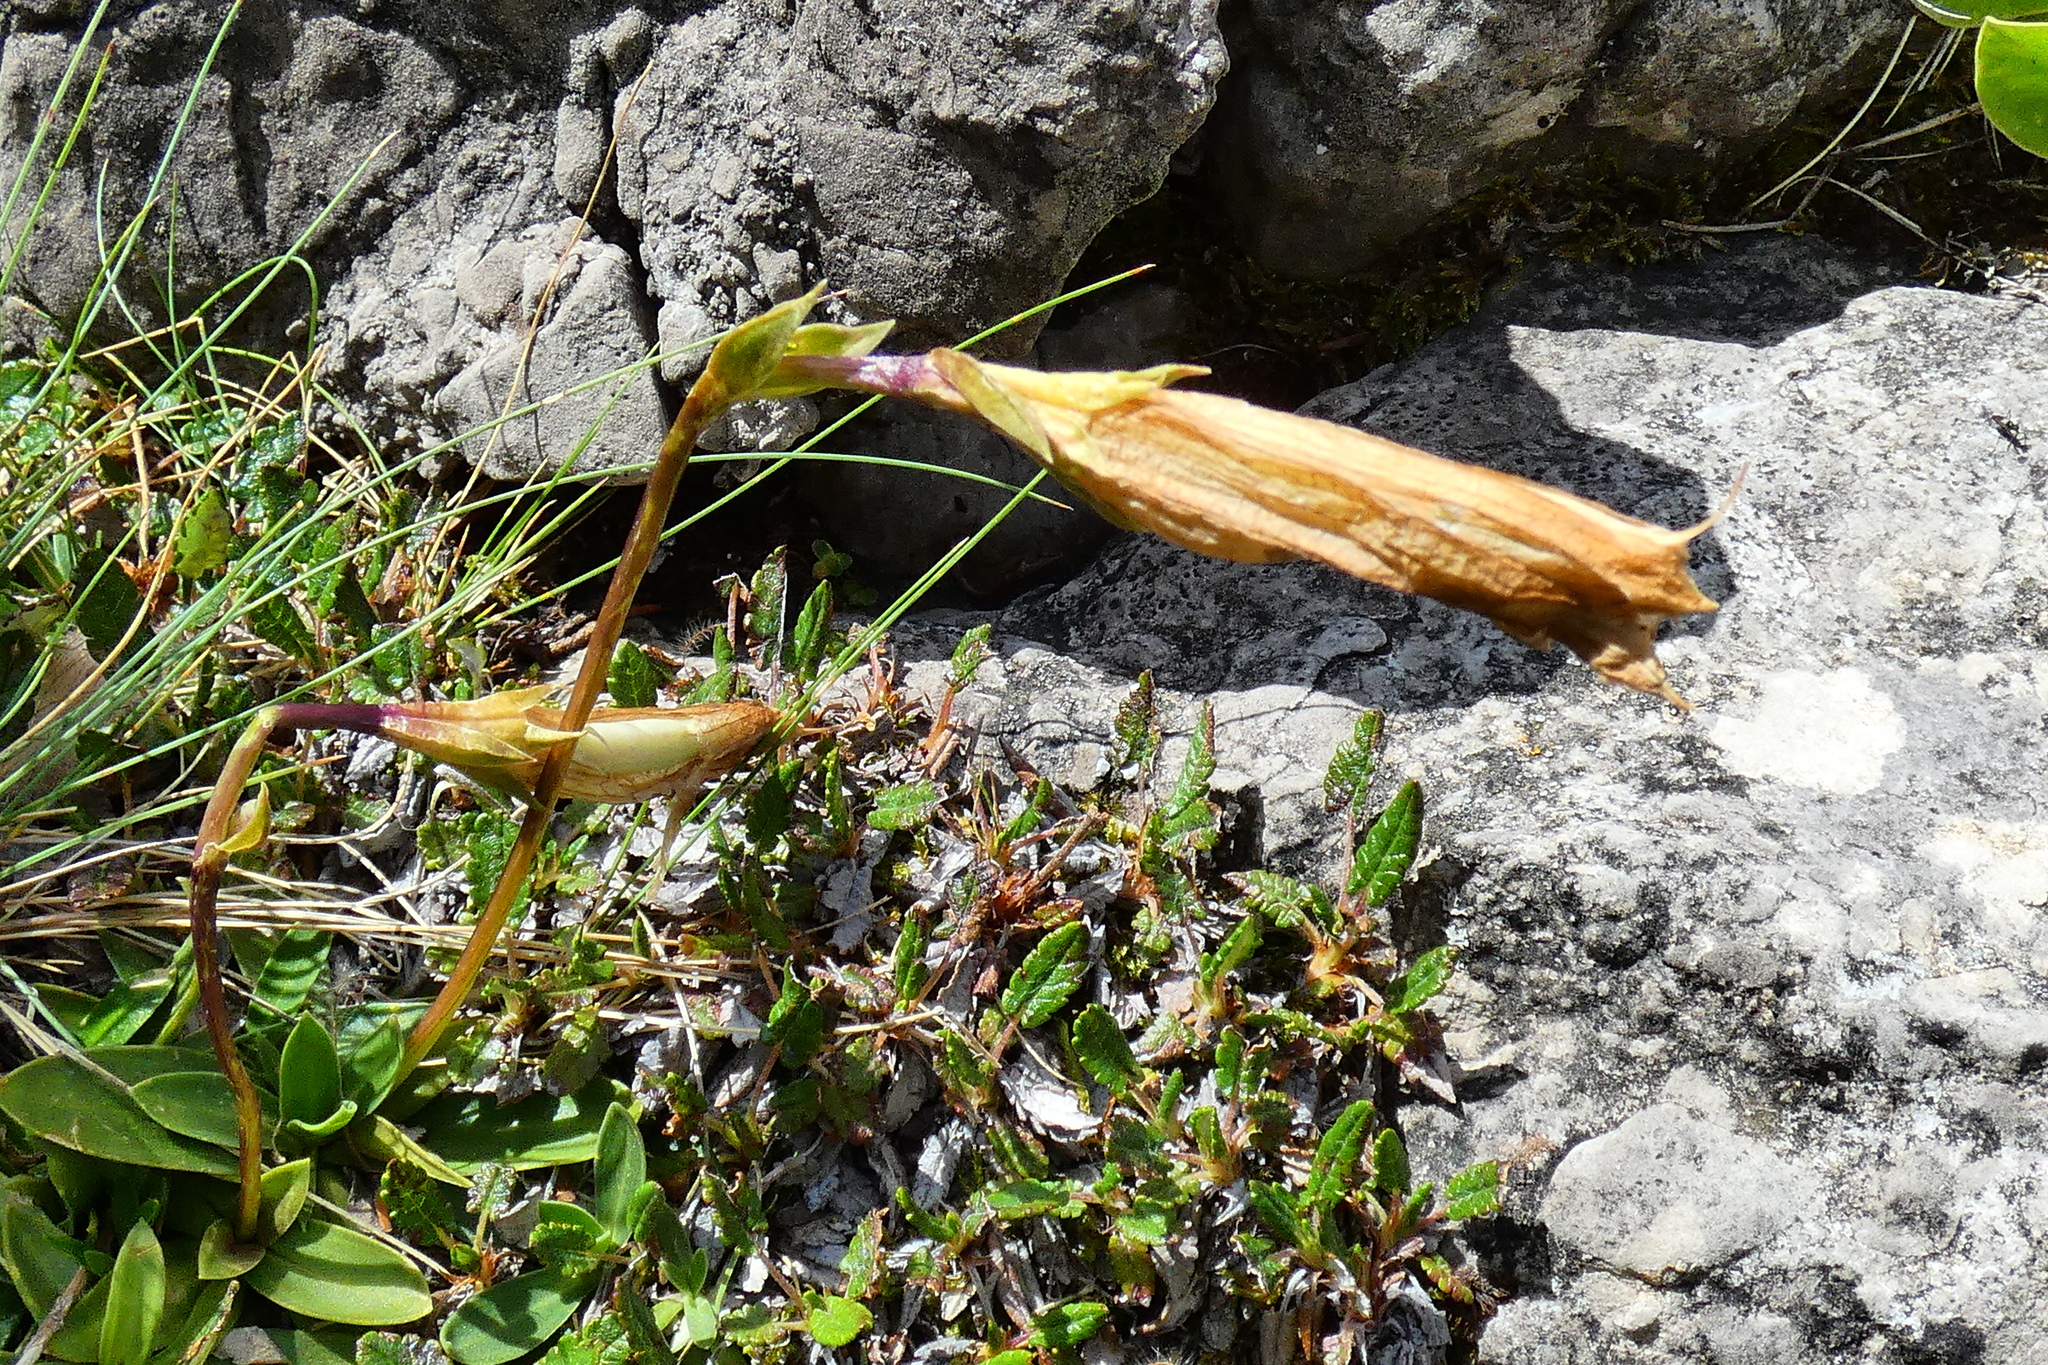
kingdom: Plantae
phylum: Tracheophyta
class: Magnoliopsida
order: Gentianales
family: Gentianaceae
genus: Gentiana
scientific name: Gentiana clusii
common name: Trumpet gentian
